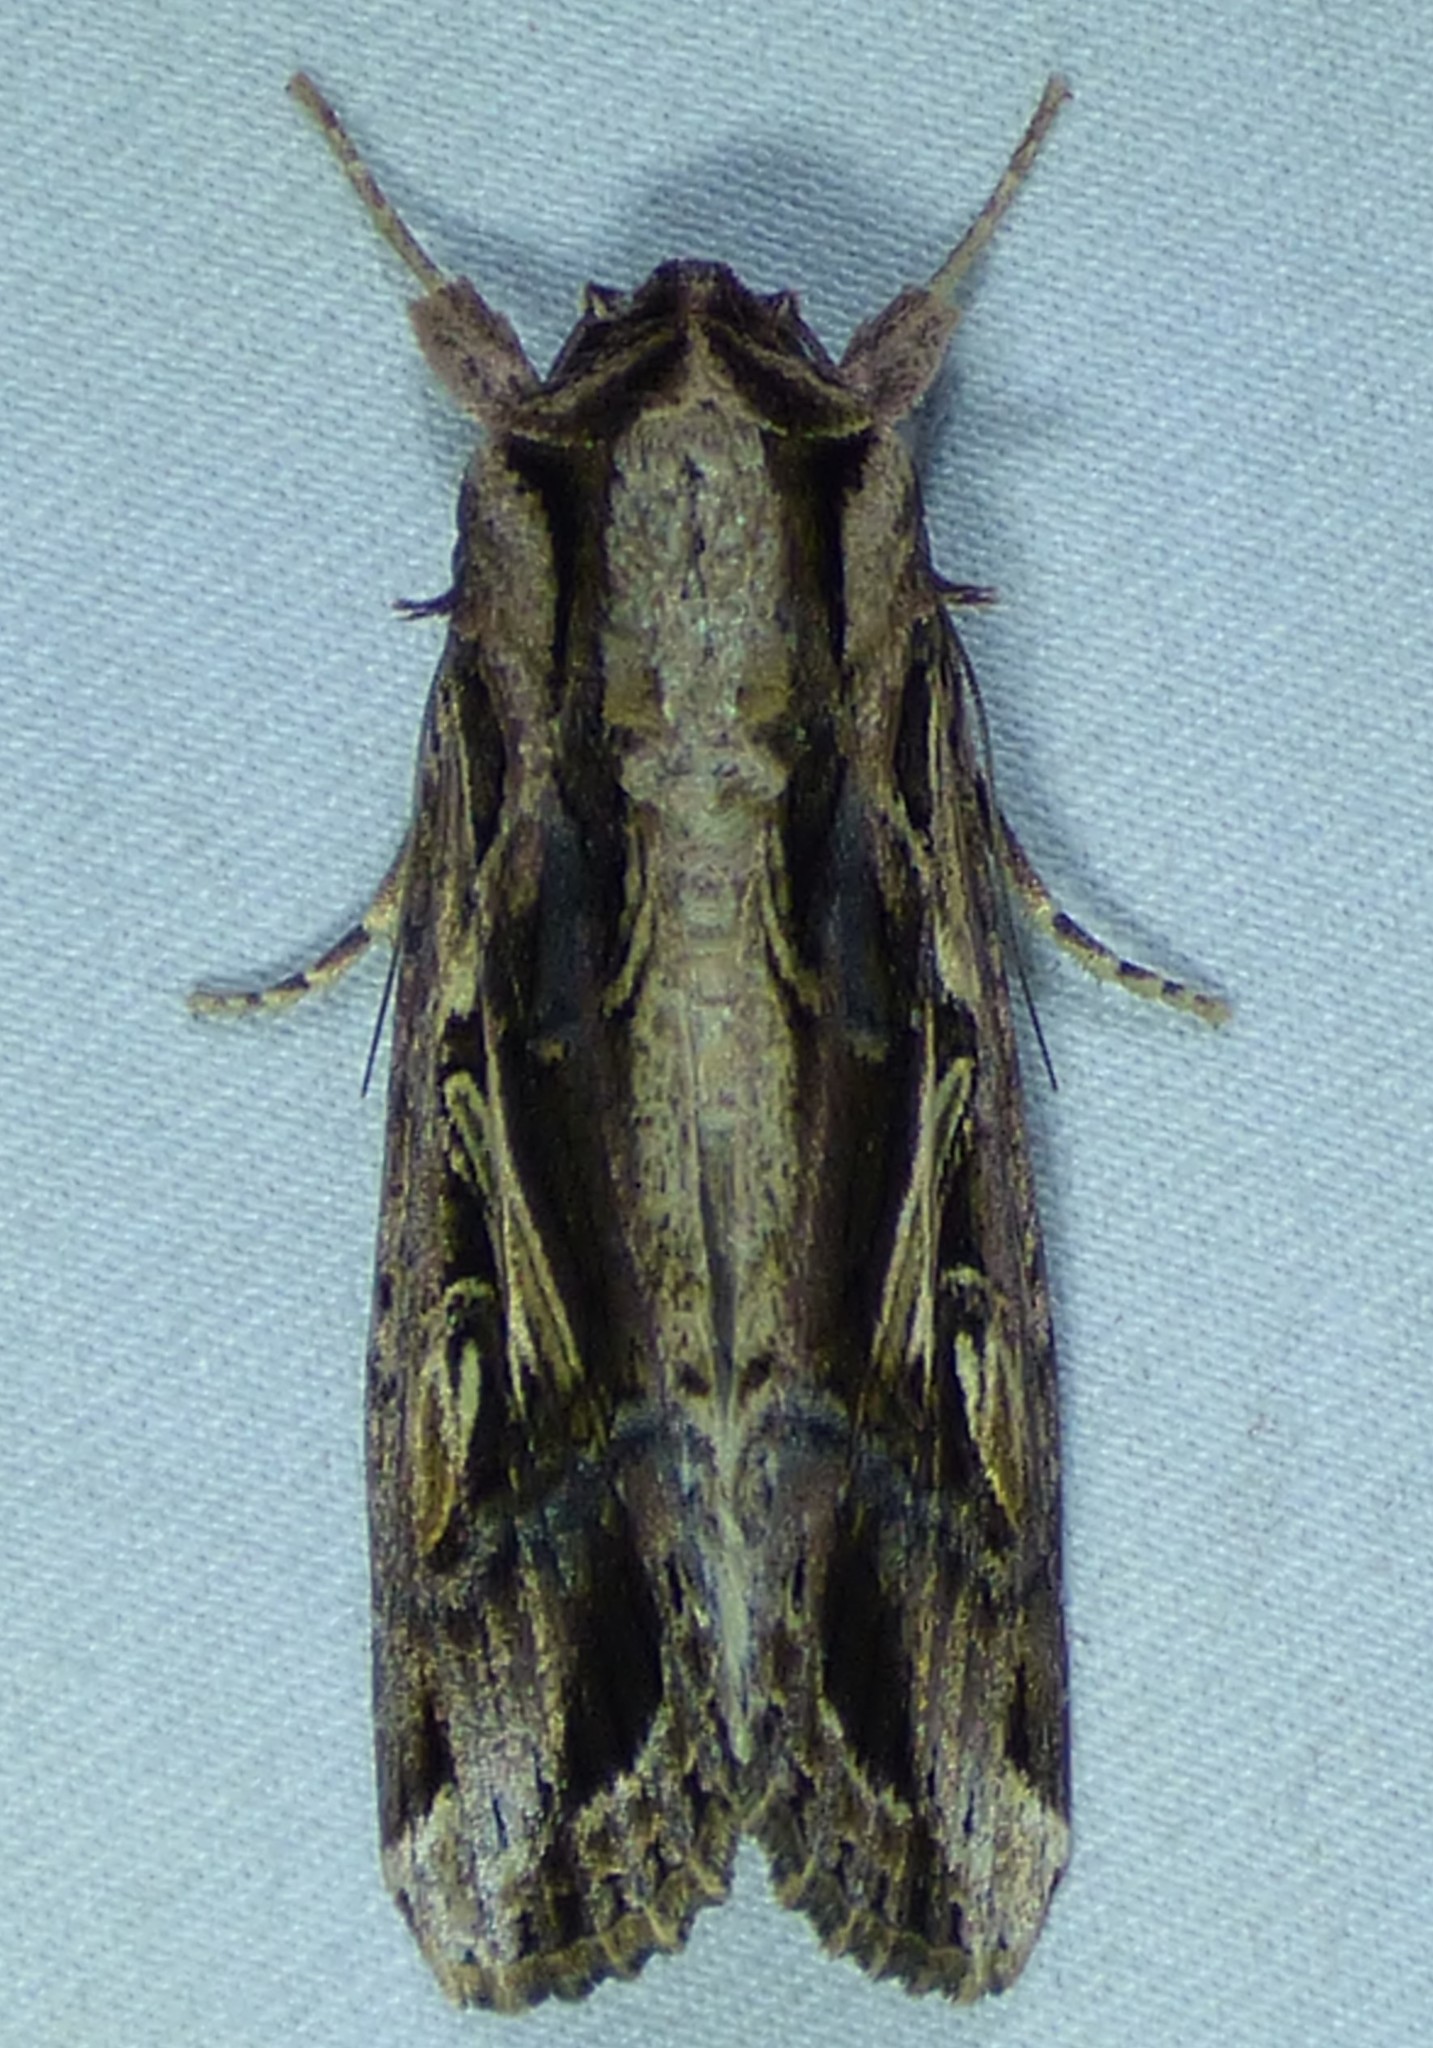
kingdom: Animalia
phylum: Arthropoda
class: Insecta
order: Lepidoptera
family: Noctuidae
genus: Spodoptera
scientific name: Spodoptera dolichos
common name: Sweetpotato armyworm
